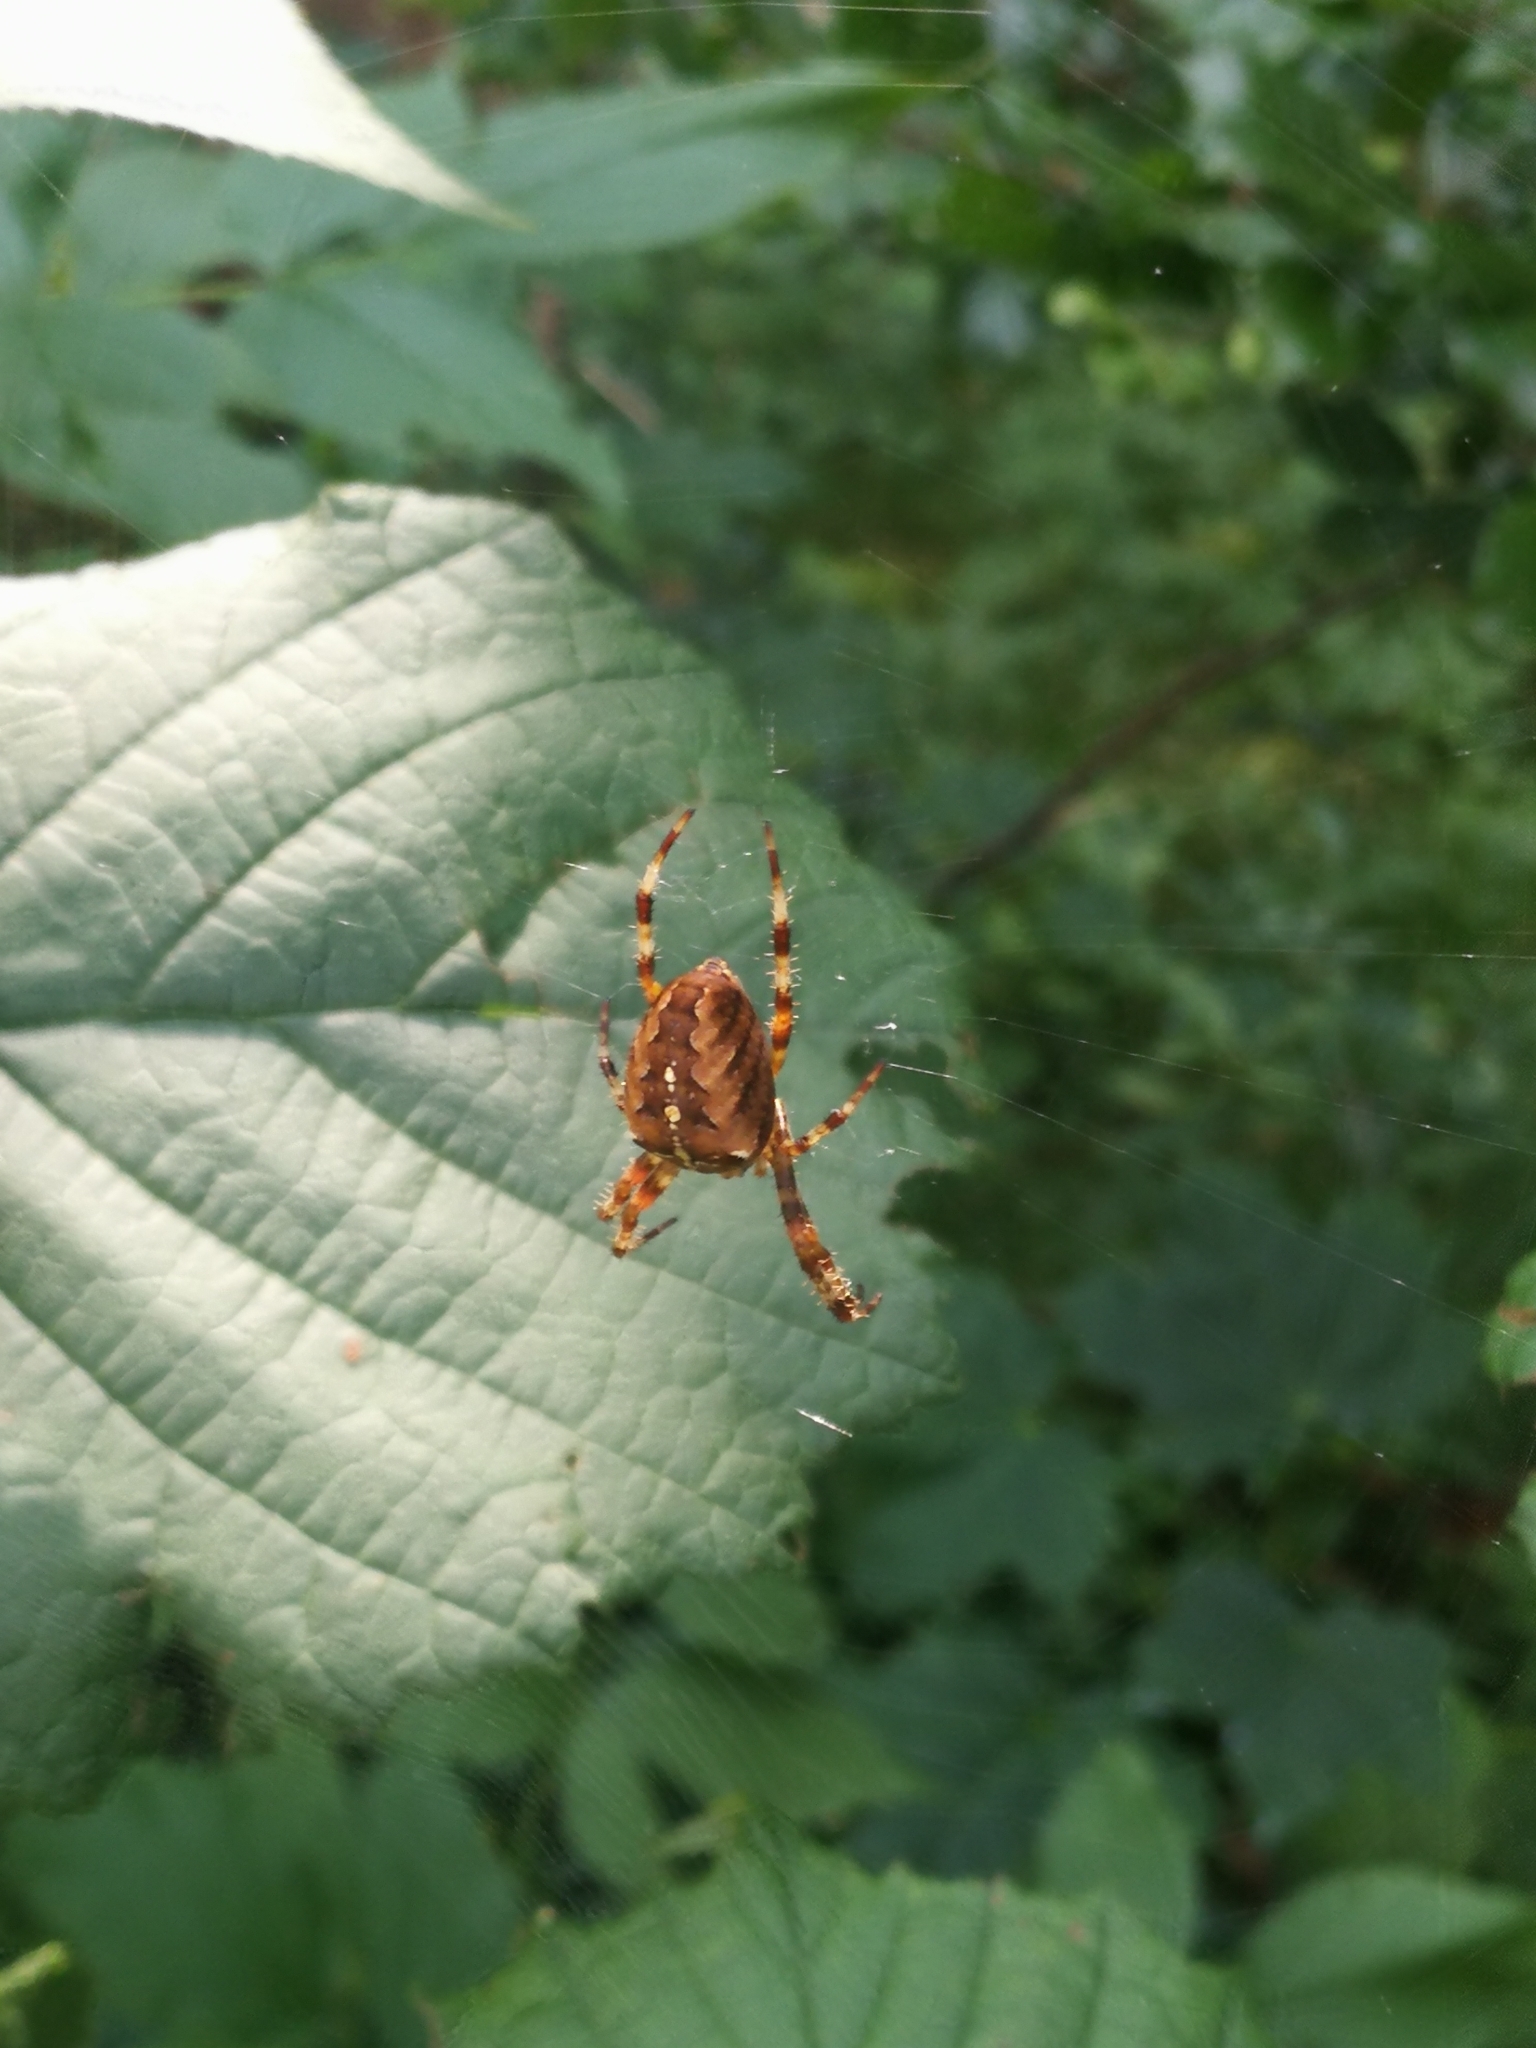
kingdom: Animalia
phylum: Arthropoda
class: Arachnida
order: Araneae
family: Araneidae
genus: Araneus
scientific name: Araneus diadematus
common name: Cross orbweaver
